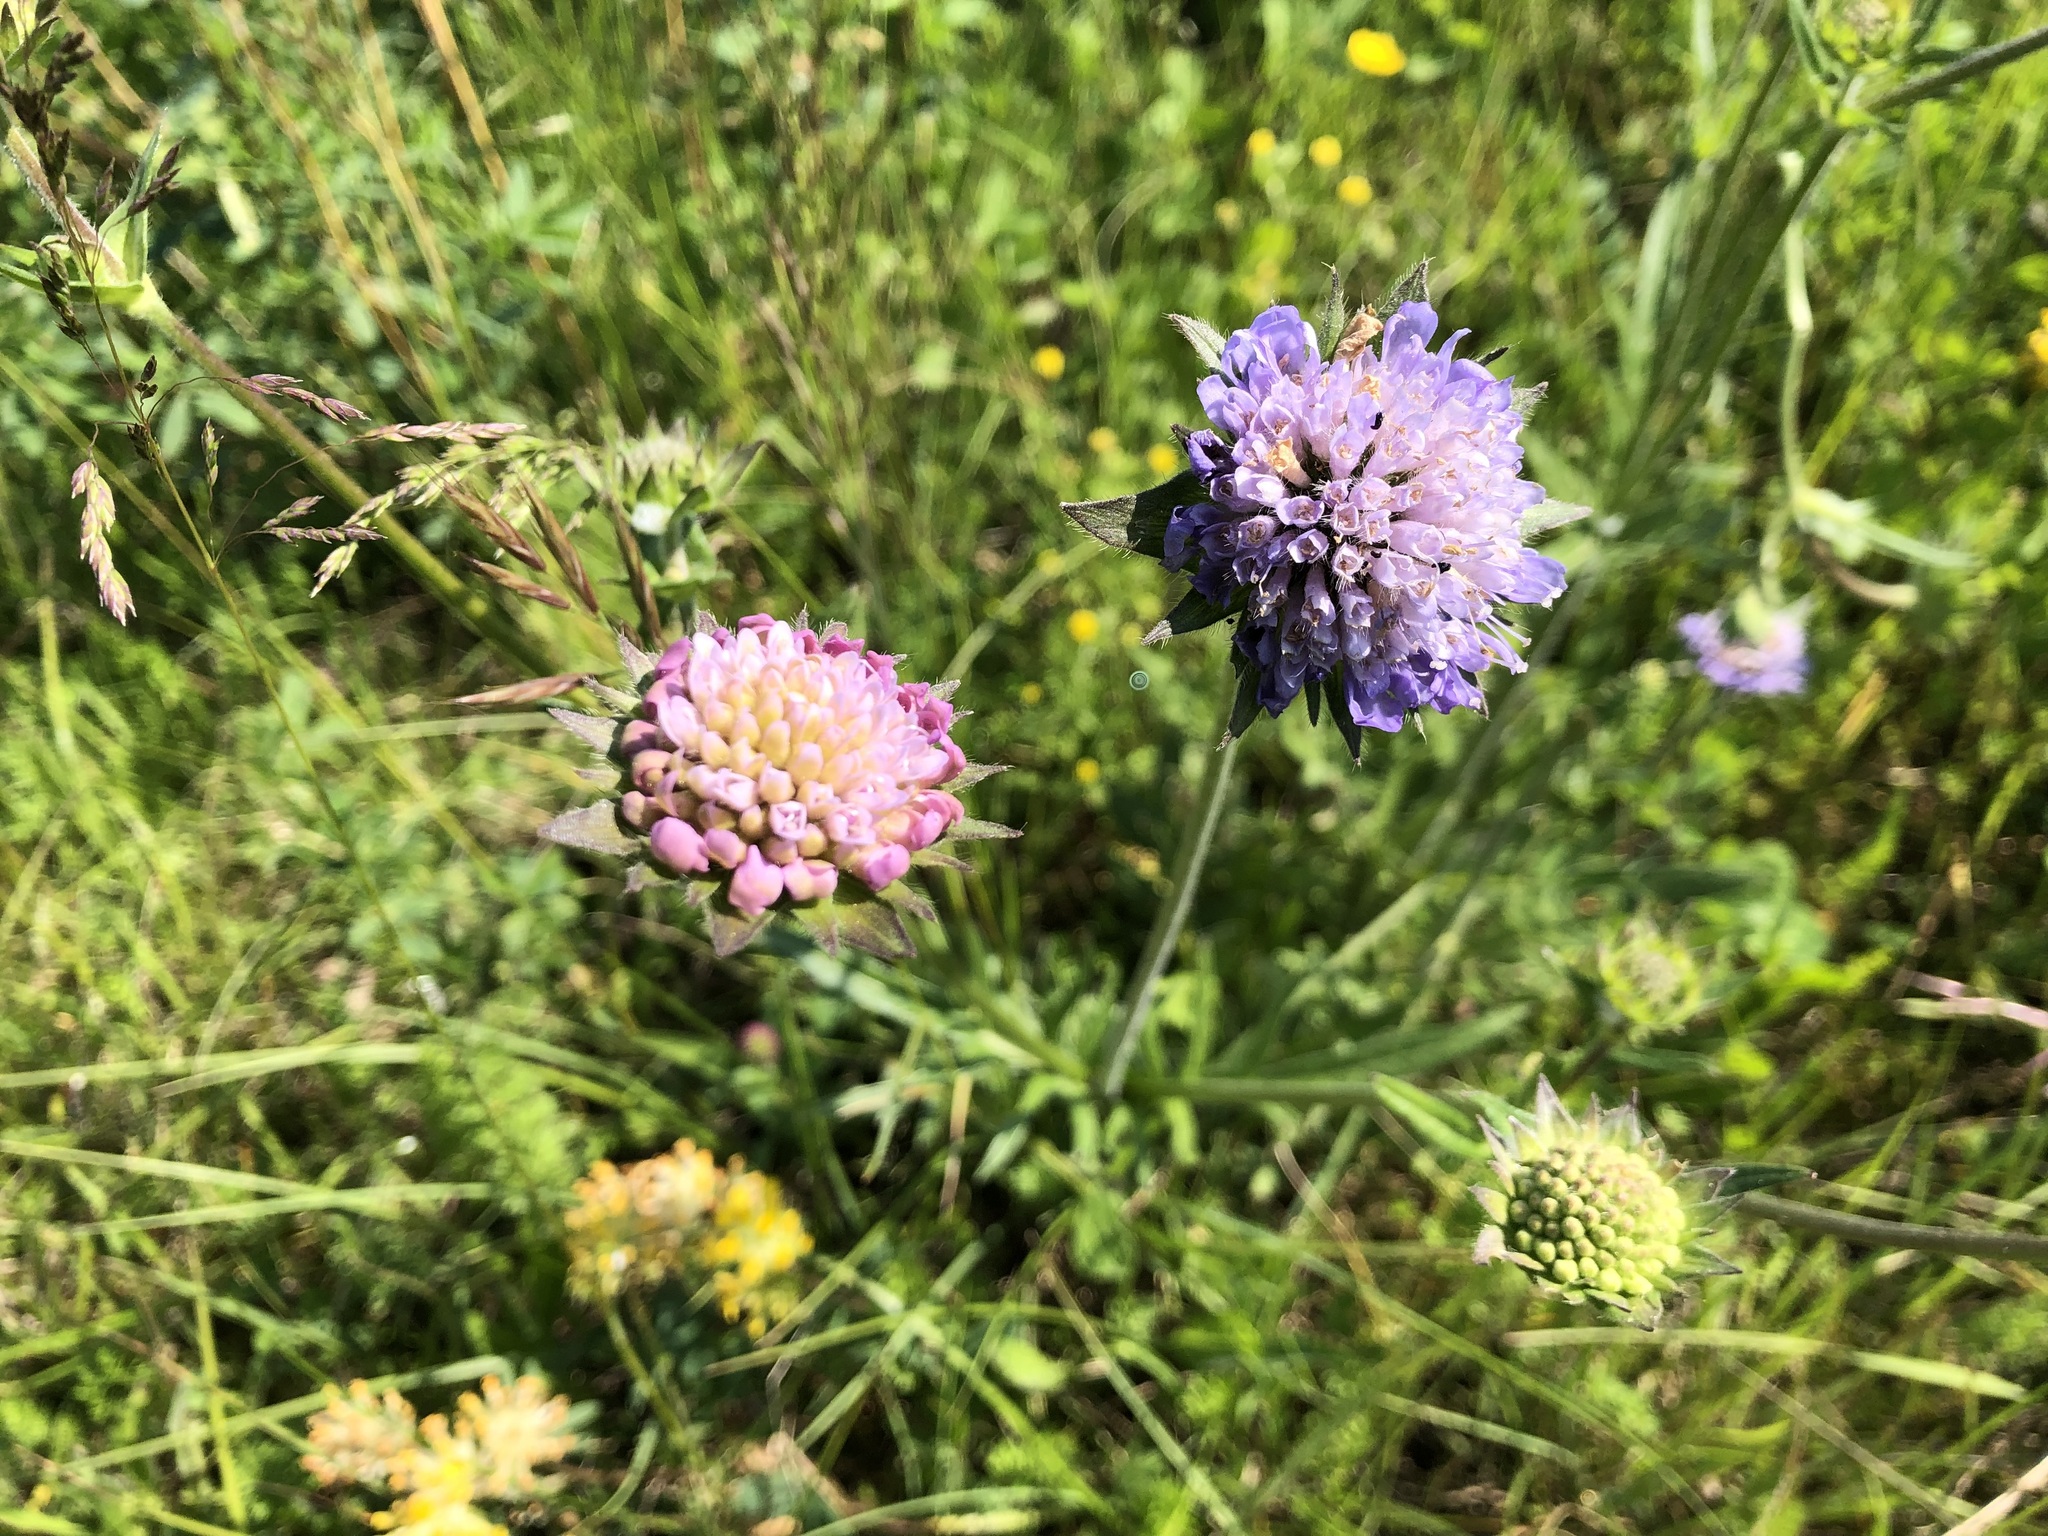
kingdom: Plantae
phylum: Tracheophyta
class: Magnoliopsida
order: Dipsacales
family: Caprifoliaceae
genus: Knautia
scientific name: Knautia arvensis
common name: Field scabiosa
